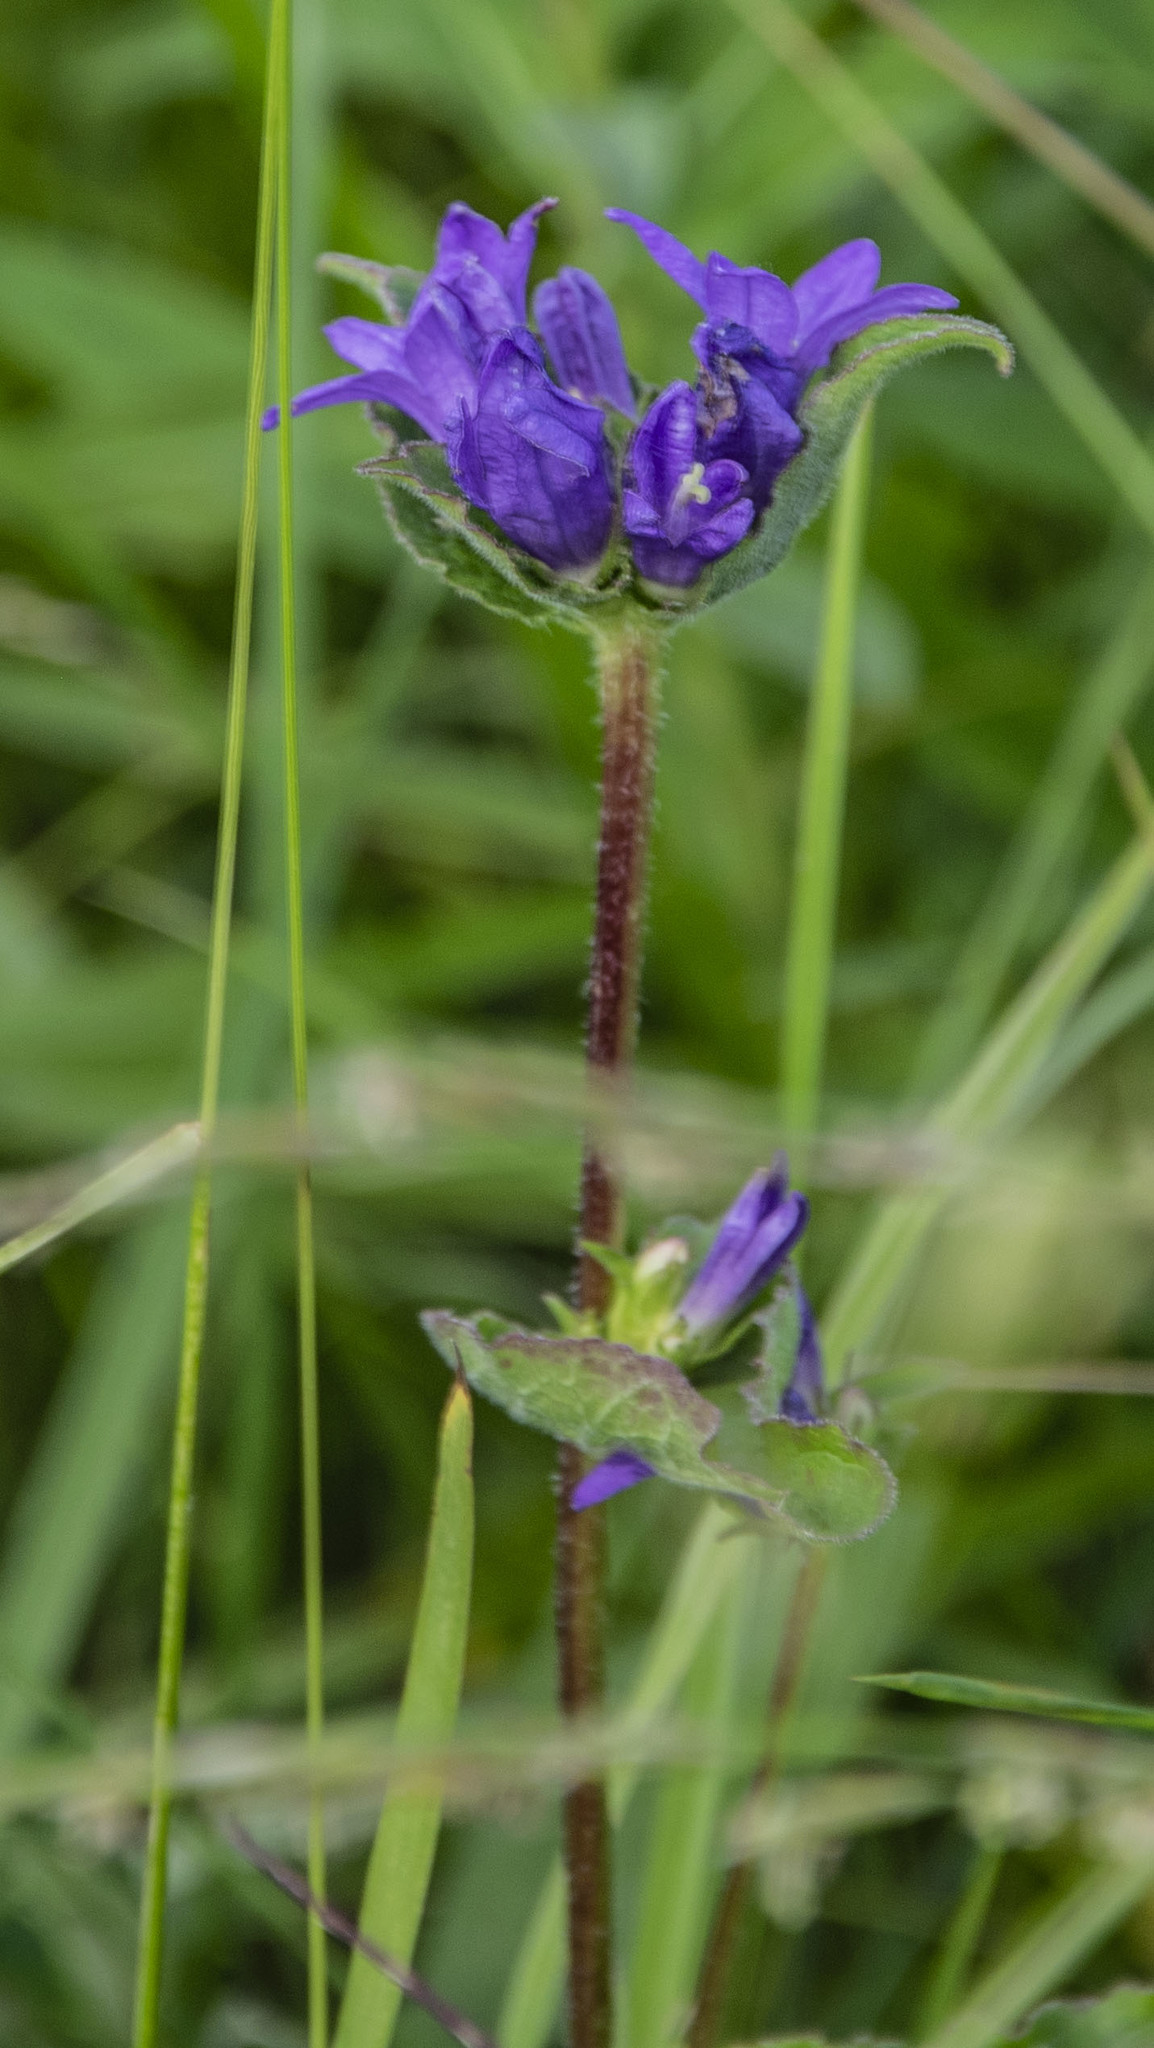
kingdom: Plantae
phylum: Tracheophyta
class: Magnoliopsida
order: Asterales
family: Campanulaceae
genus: Campanula
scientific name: Campanula glomerata
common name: Clustered bellflower
